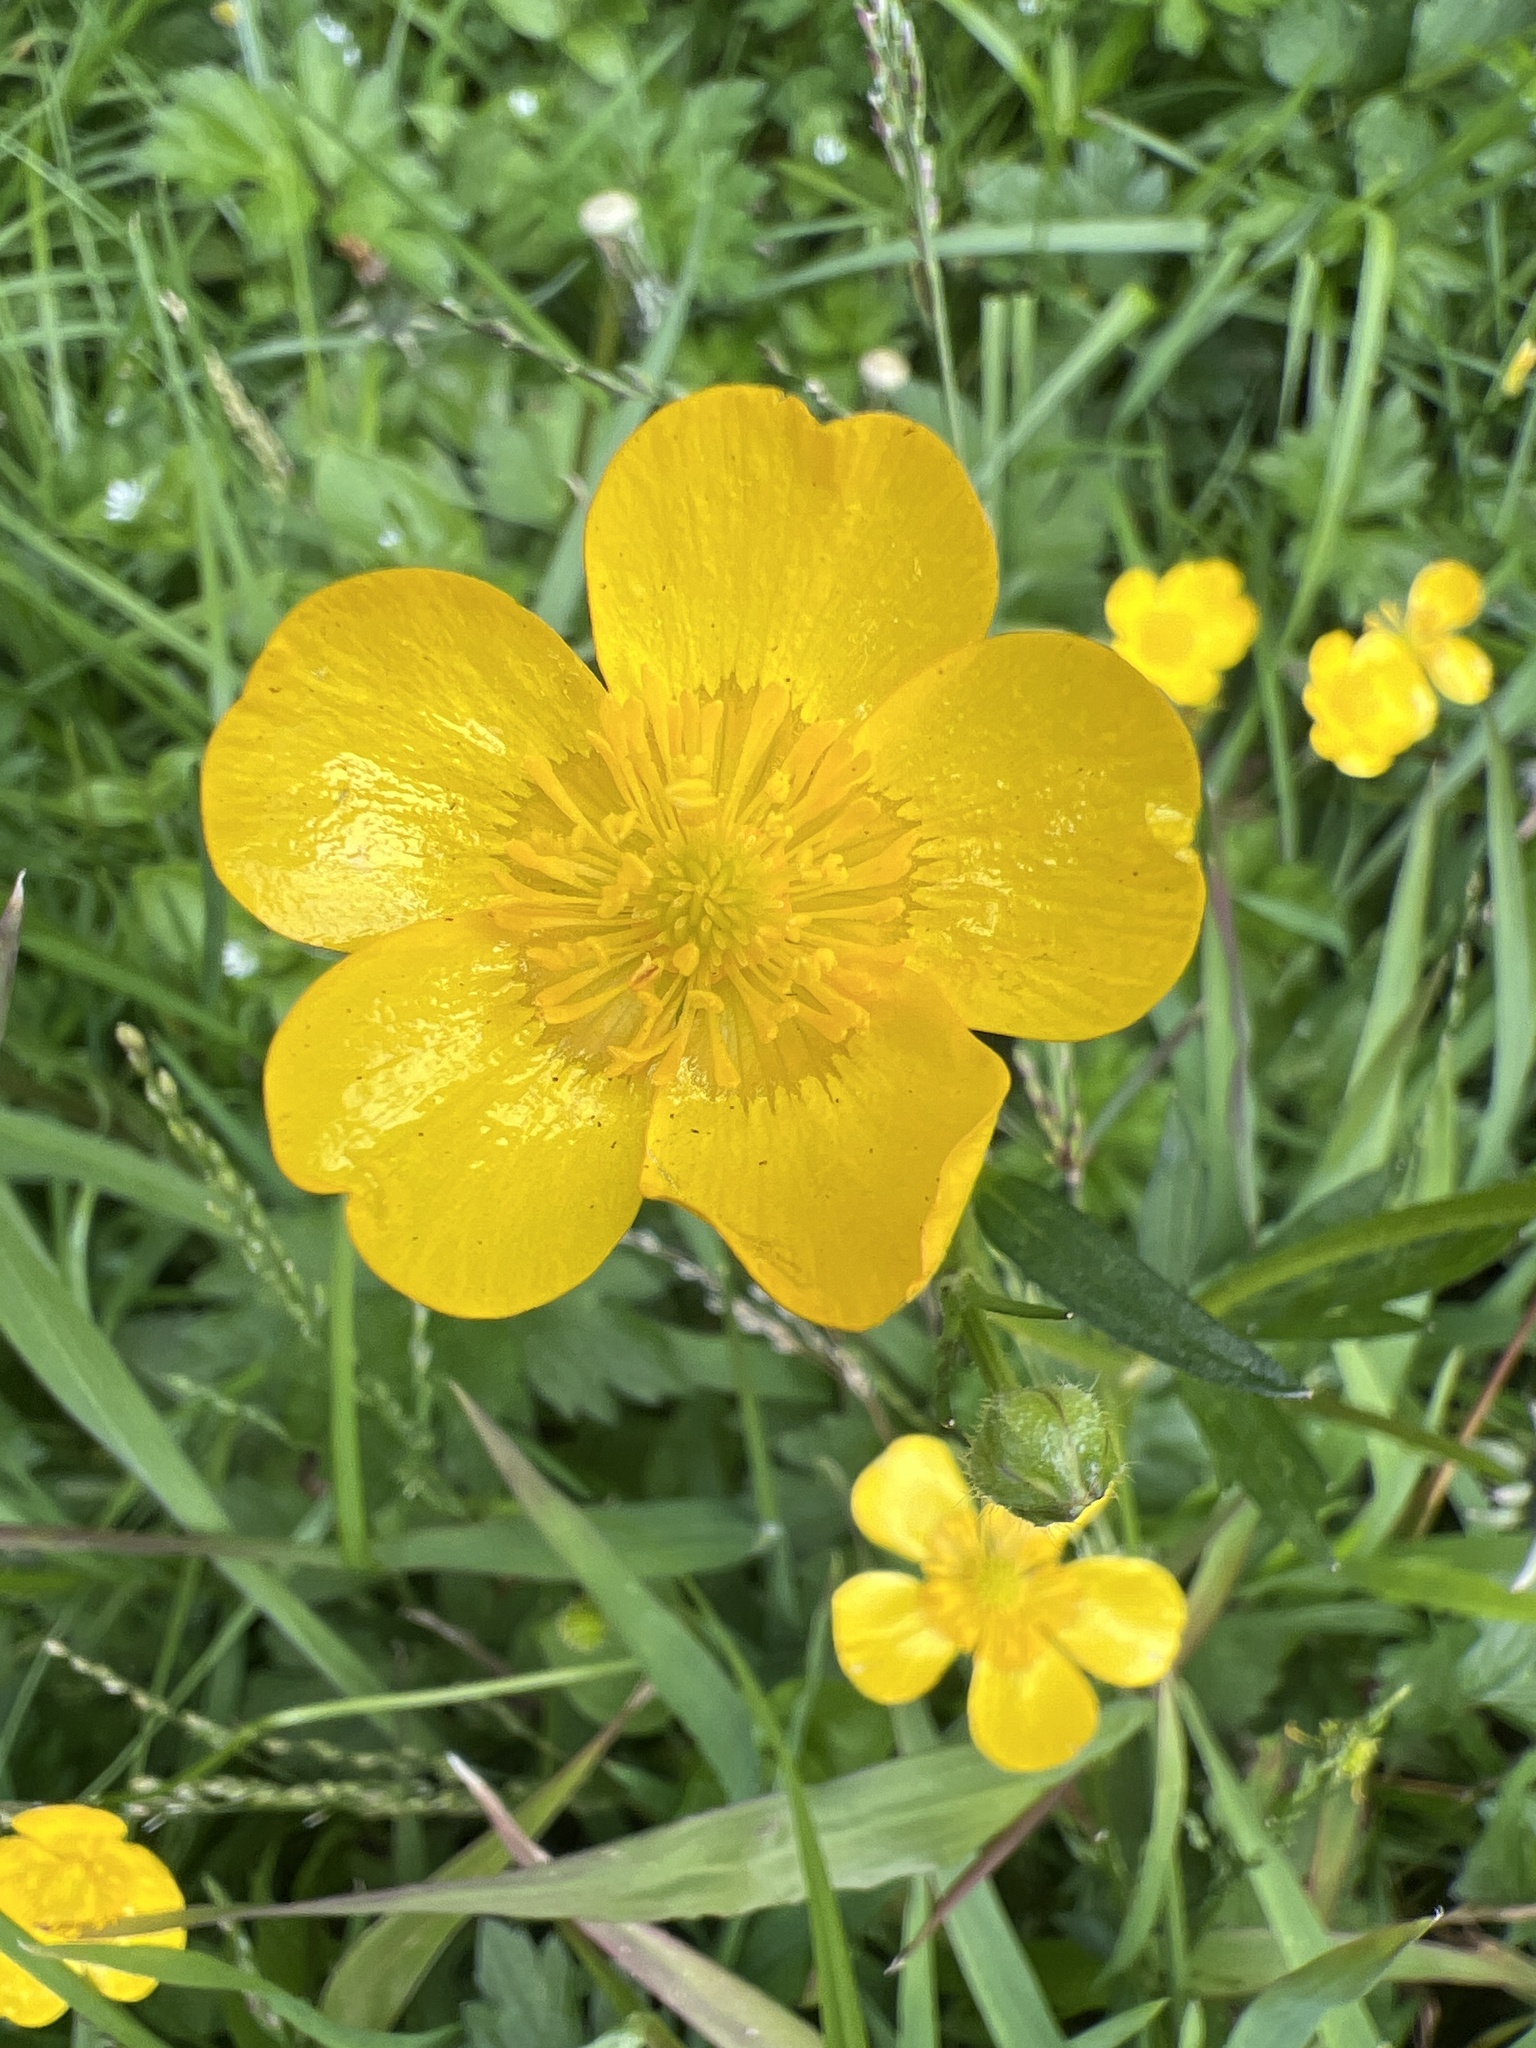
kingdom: Plantae
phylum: Tracheophyta
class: Magnoliopsida
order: Ranunculales
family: Ranunculaceae
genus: Ranunculus
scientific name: Ranunculus repens
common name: Creeping buttercup
